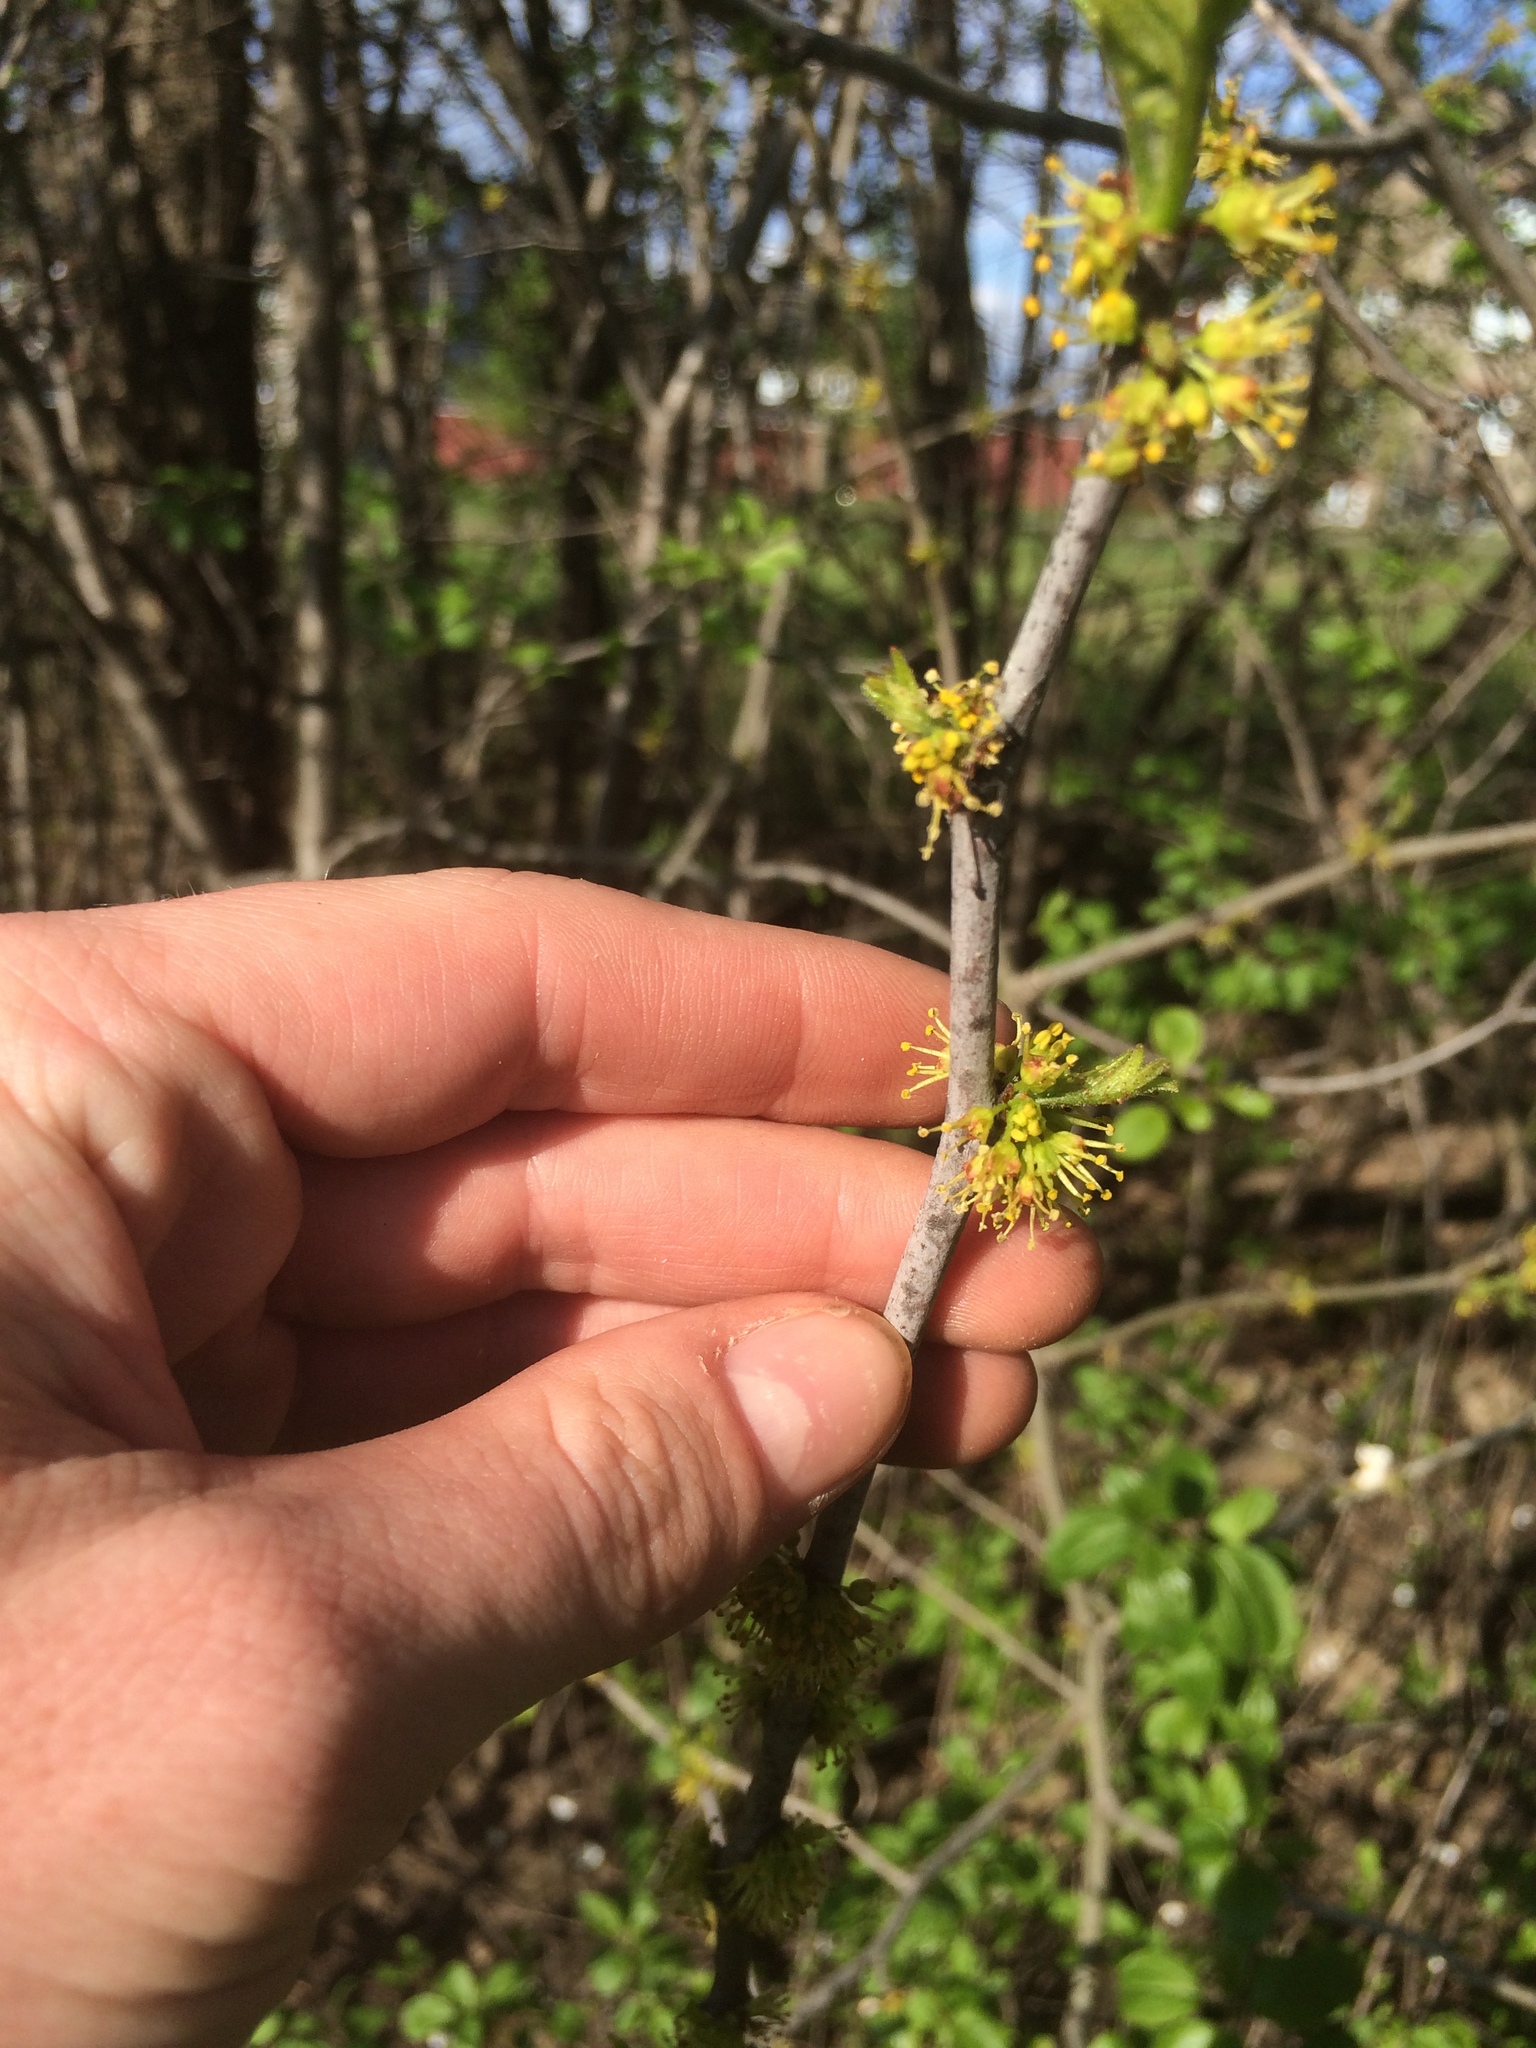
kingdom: Plantae
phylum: Tracheophyta
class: Magnoliopsida
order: Sapindales
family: Rutaceae
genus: Zanthoxylum
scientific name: Zanthoxylum americanum
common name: Northern prickly-ash
